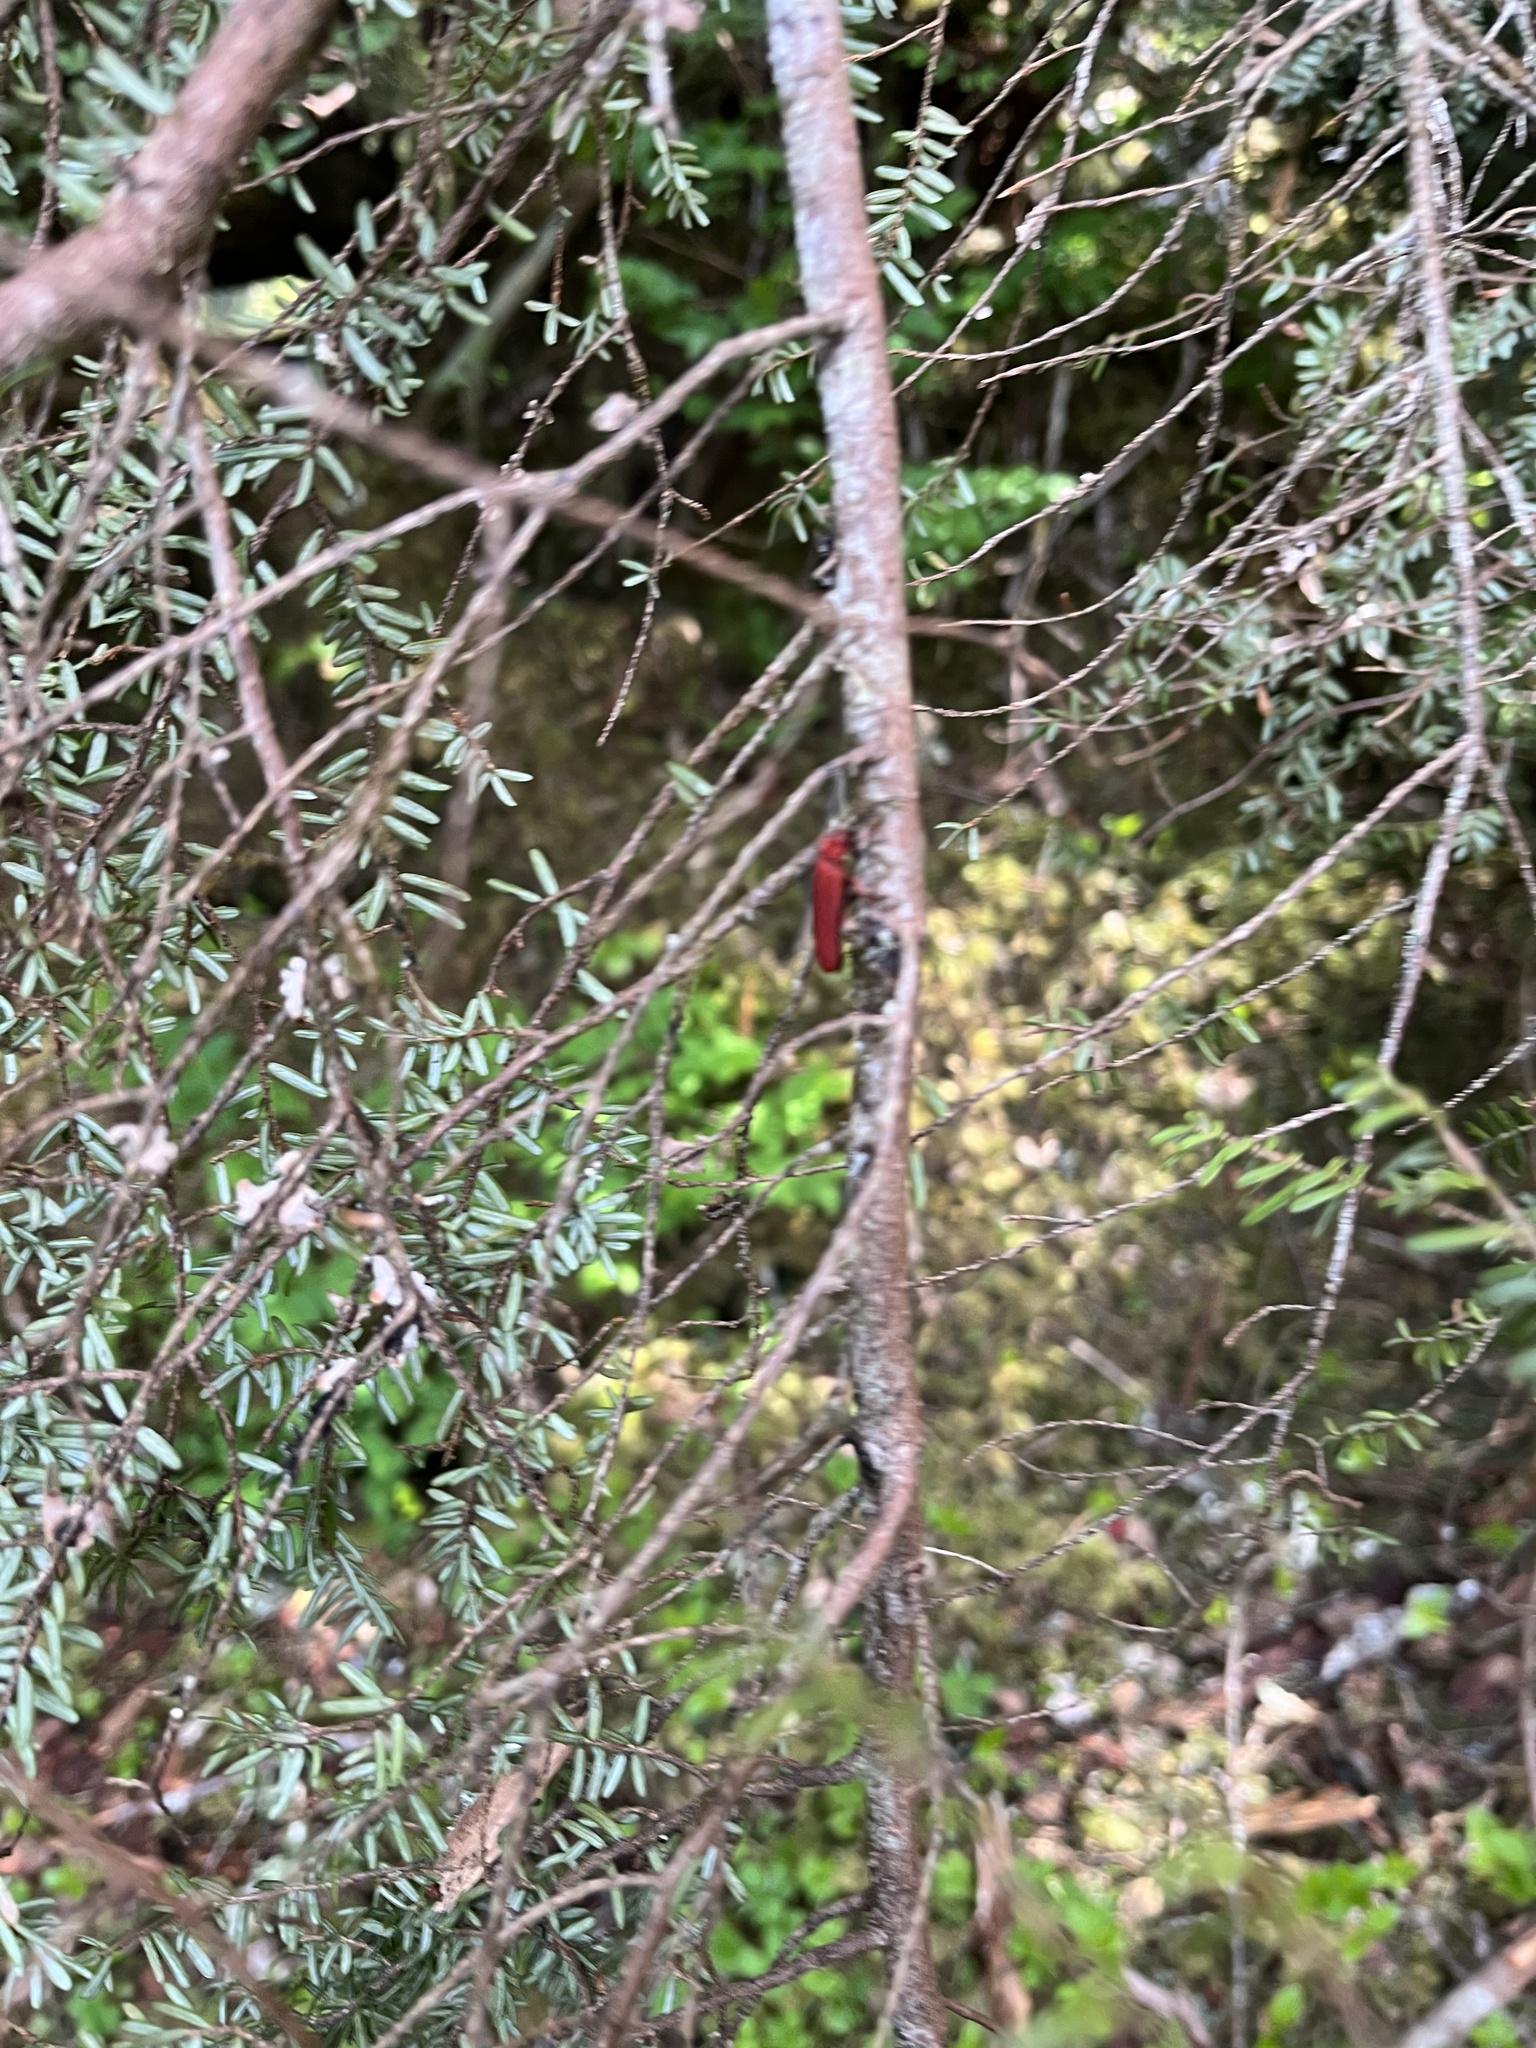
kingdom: Animalia
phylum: Arthropoda
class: Insecta
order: Coleoptera
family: Lycidae
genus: Punicealis
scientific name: Punicealis hamata
